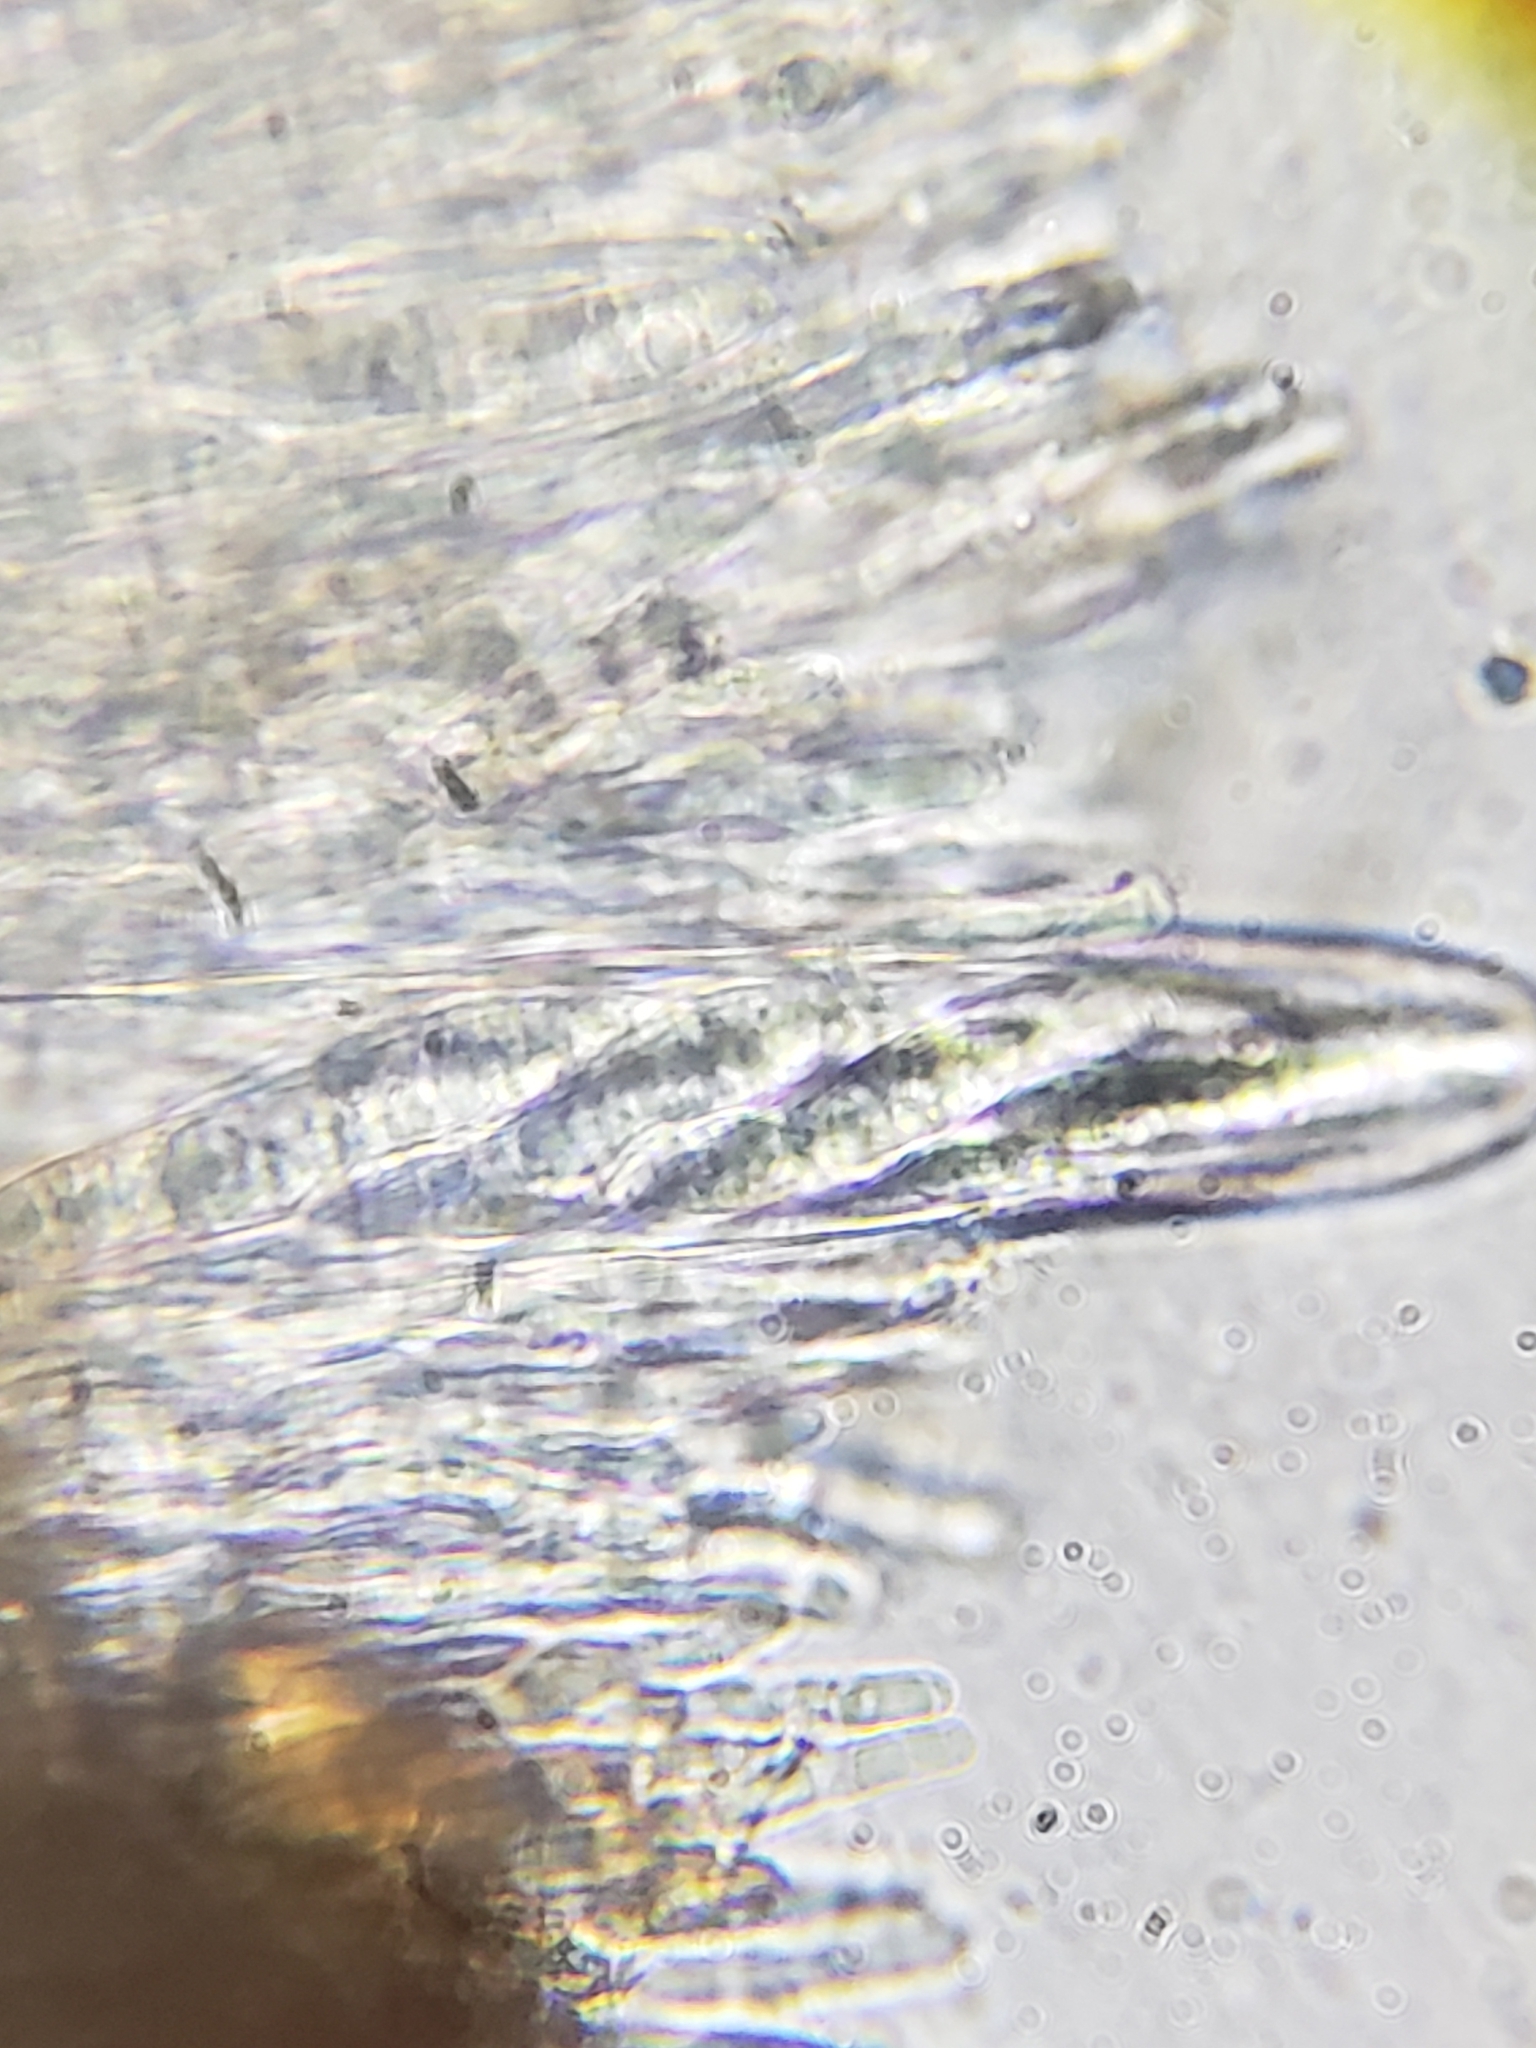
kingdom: Fungi
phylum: Ascomycota
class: Leotiomycetes
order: Helotiales
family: Helotiaceae
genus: Tatraea
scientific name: Tatraea macrospora
